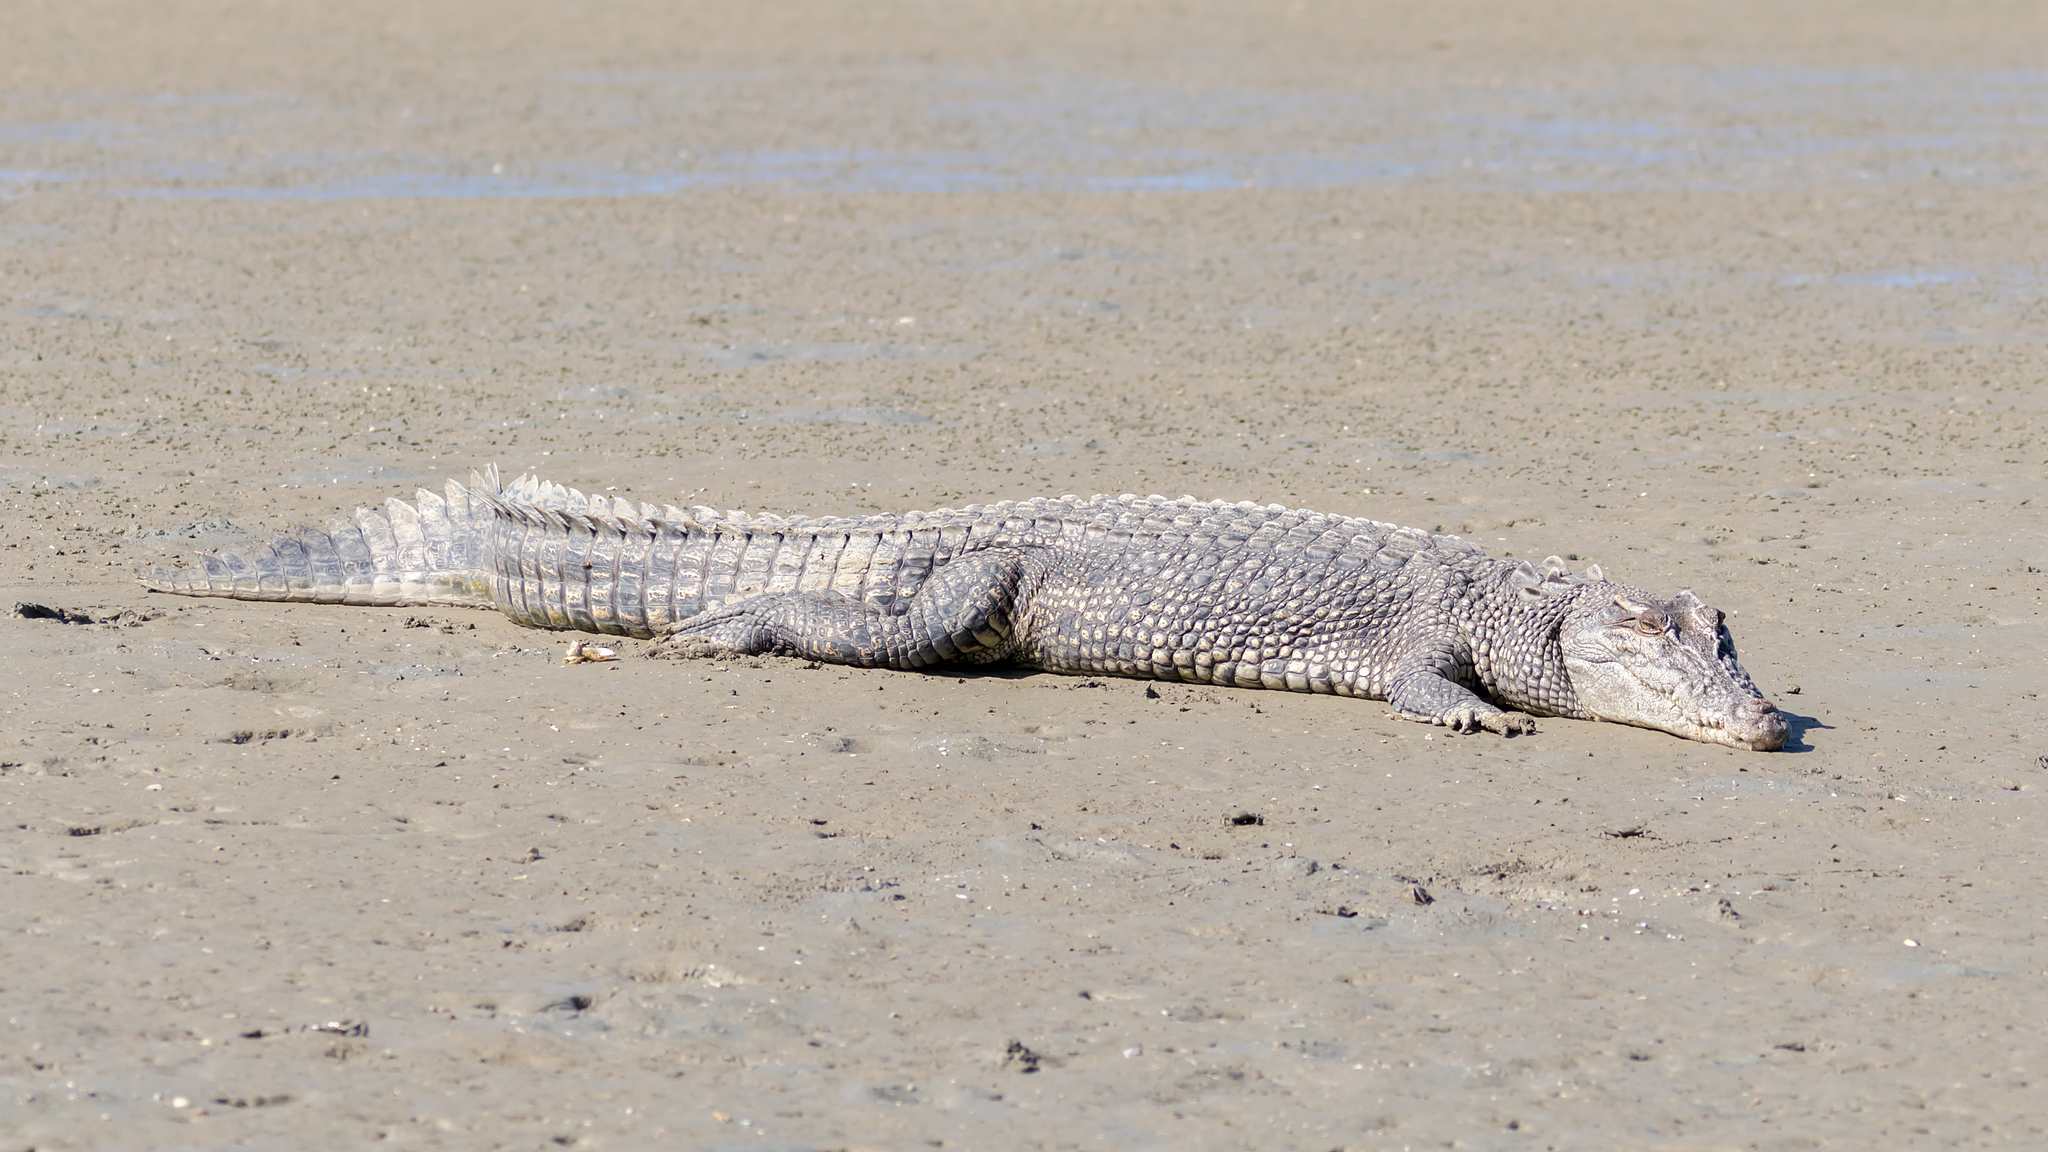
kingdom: Animalia
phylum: Chordata
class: Crocodylia
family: Crocodylidae
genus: Crocodylus
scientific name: Crocodylus porosus
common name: Saltwater crocodile
